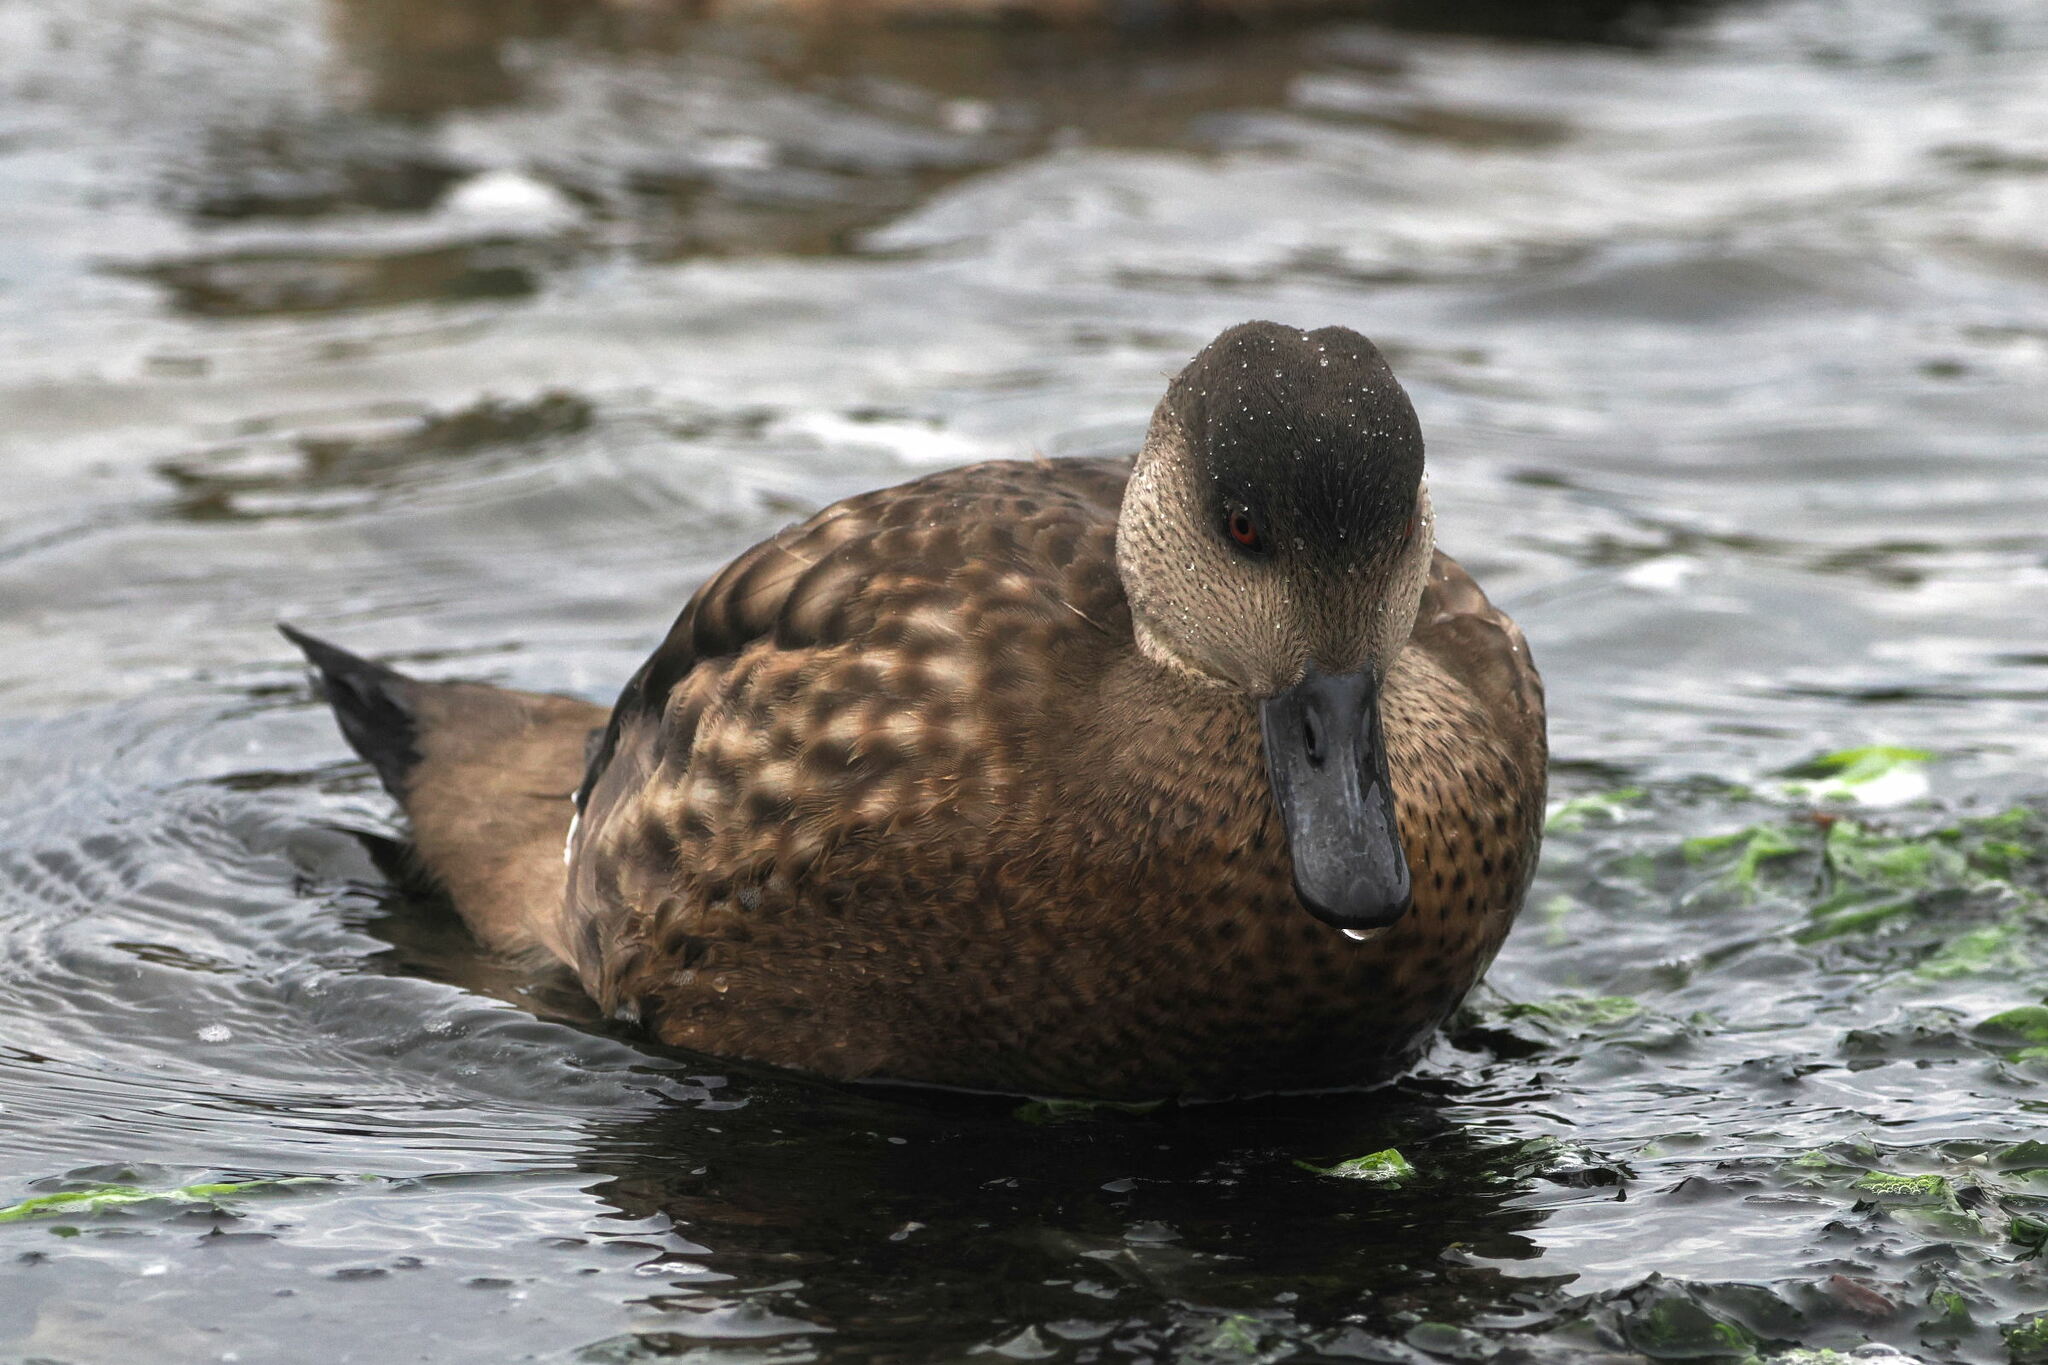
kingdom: Animalia
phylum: Chordata
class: Aves
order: Anseriformes
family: Anatidae
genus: Lophonetta
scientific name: Lophonetta specularioides
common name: Crested duck
